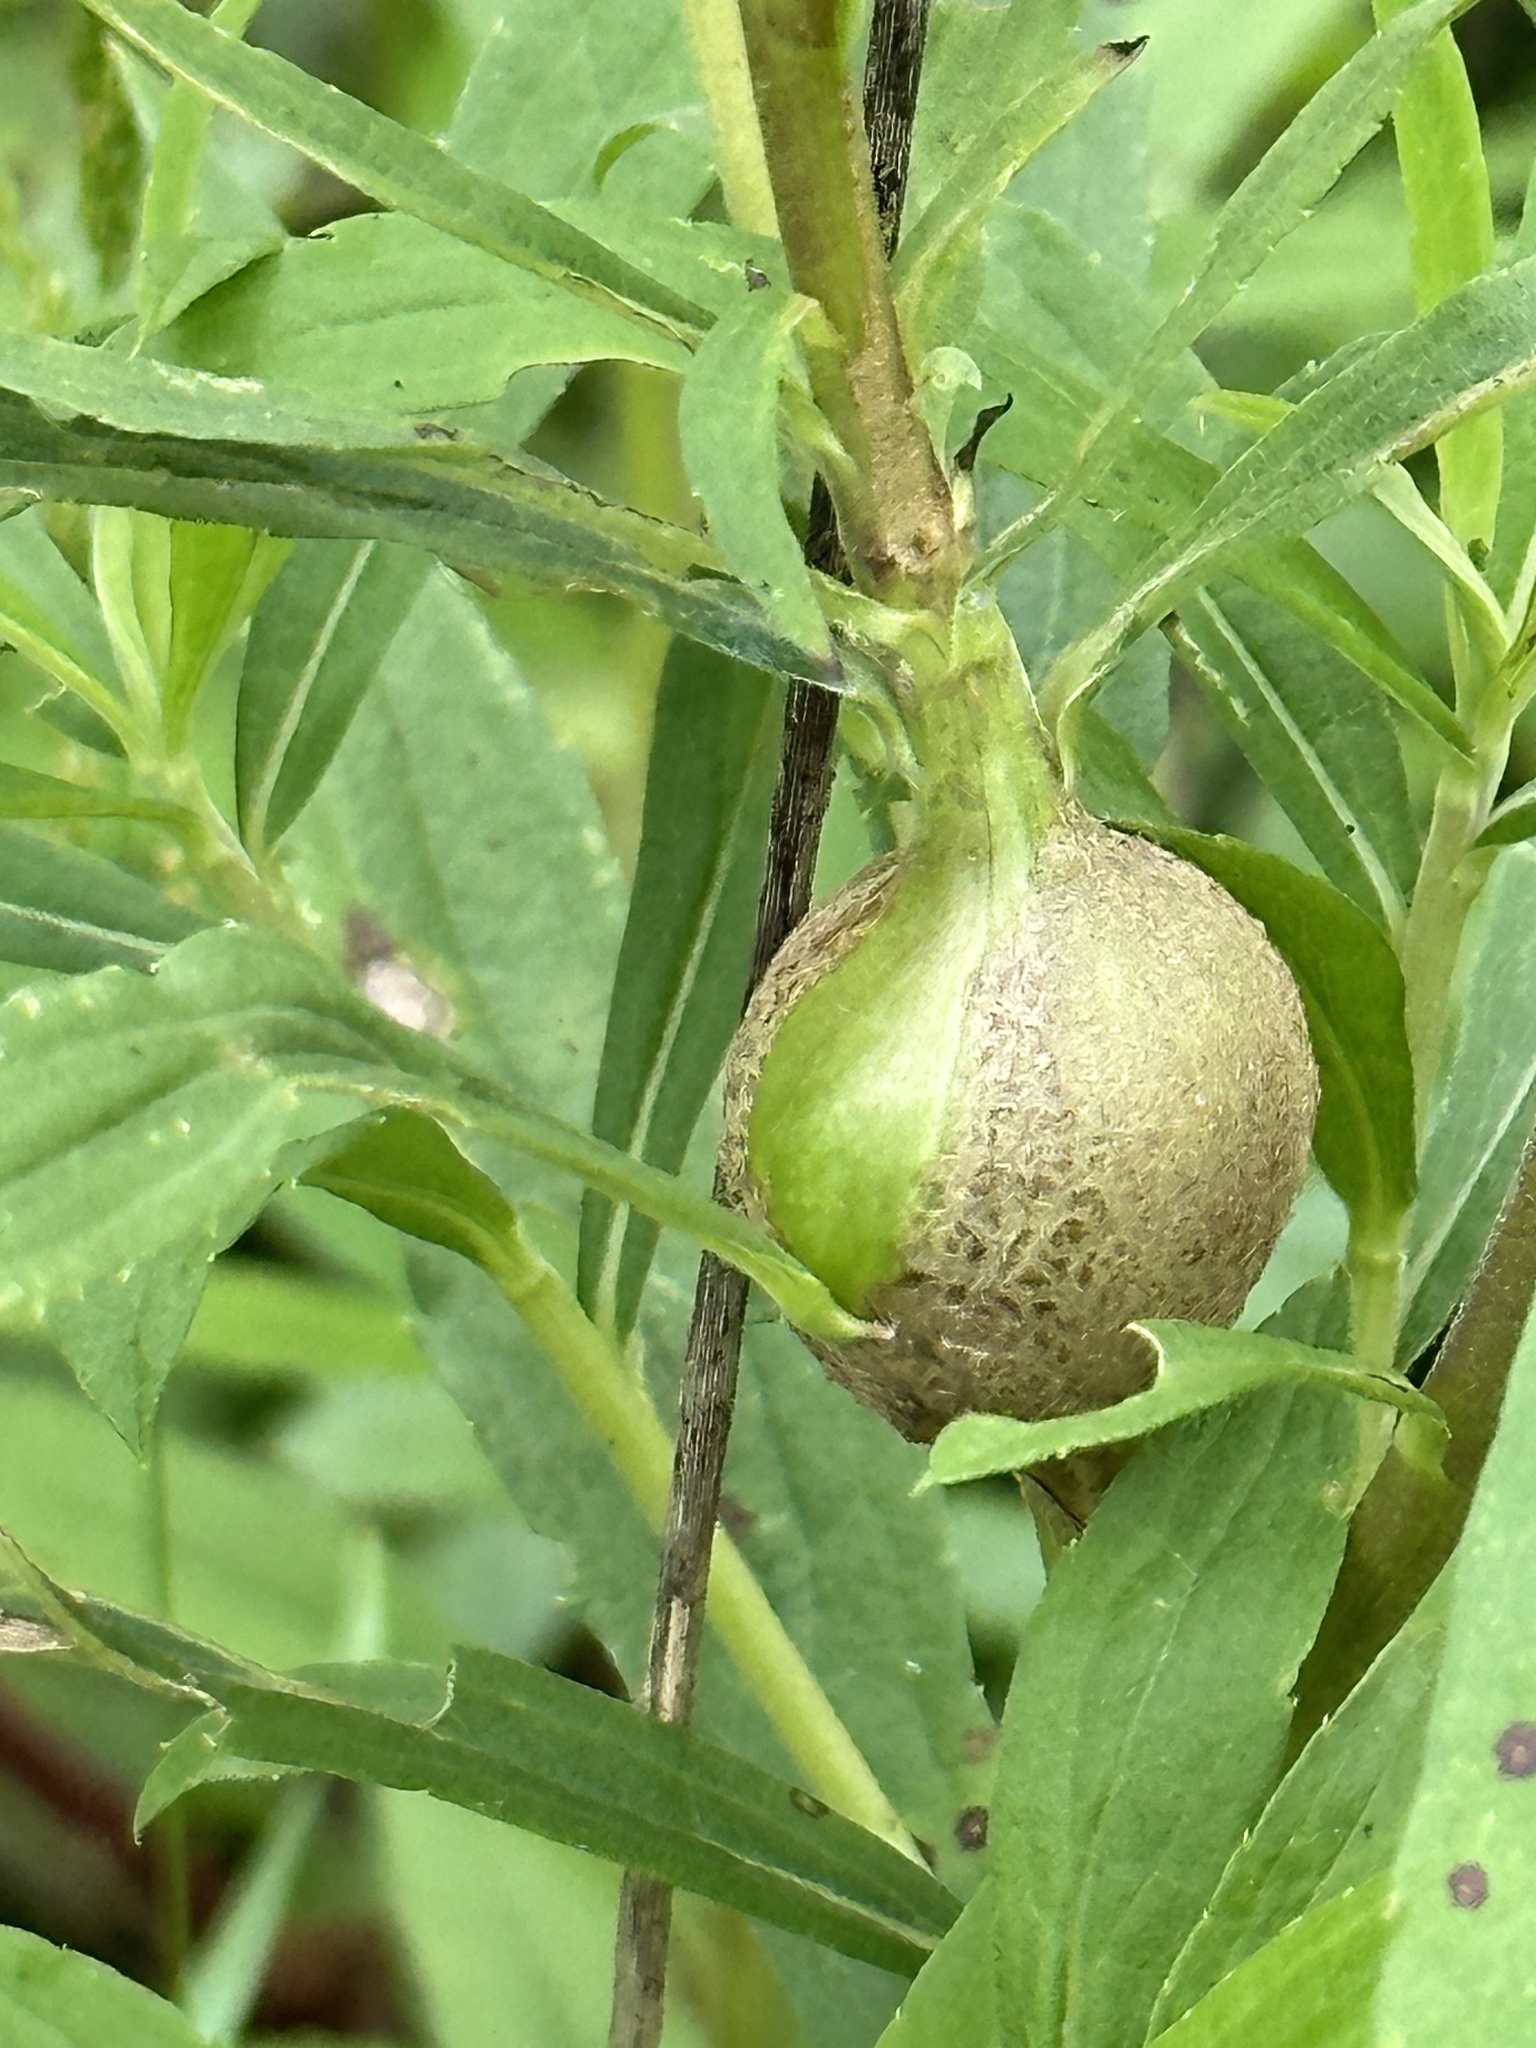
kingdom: Animalia
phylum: Arthropoda
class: Insecta
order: Diptera
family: Tephritidae
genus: Eurosta
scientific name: Eurosta solidaginis
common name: Goldenrod gall fly
